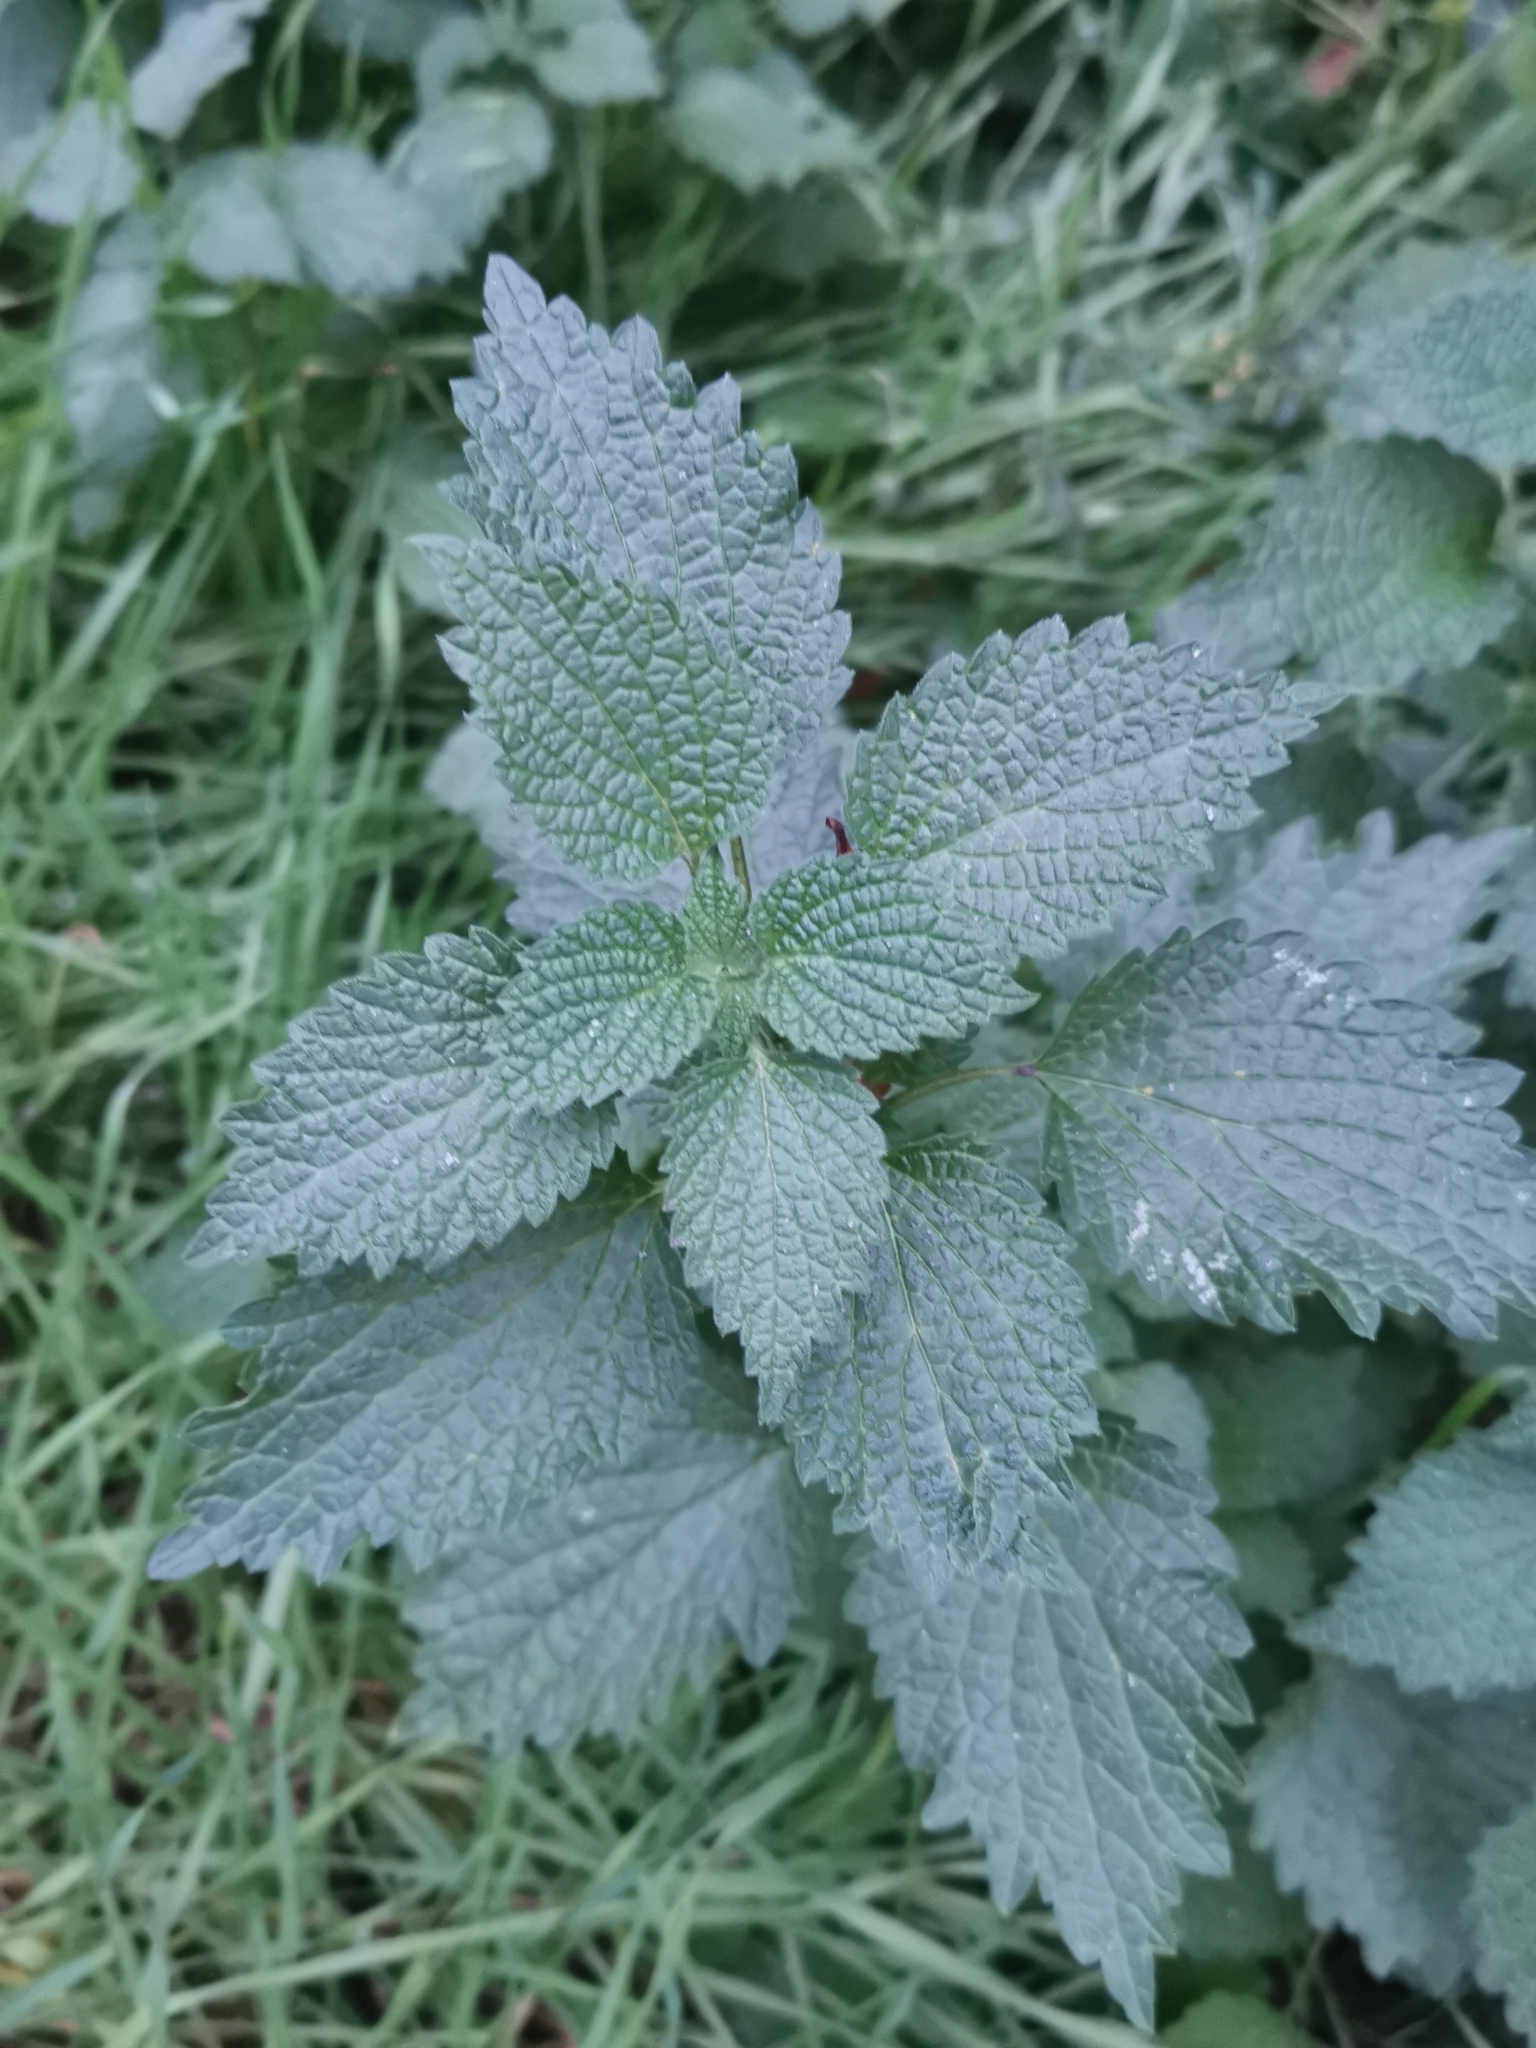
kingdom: Plantae
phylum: Tracheophyta
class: Magnoliopsida
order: Lamiales
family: Lamiaceae
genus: Ballota
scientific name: Ballota nigra
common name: Black horehound
